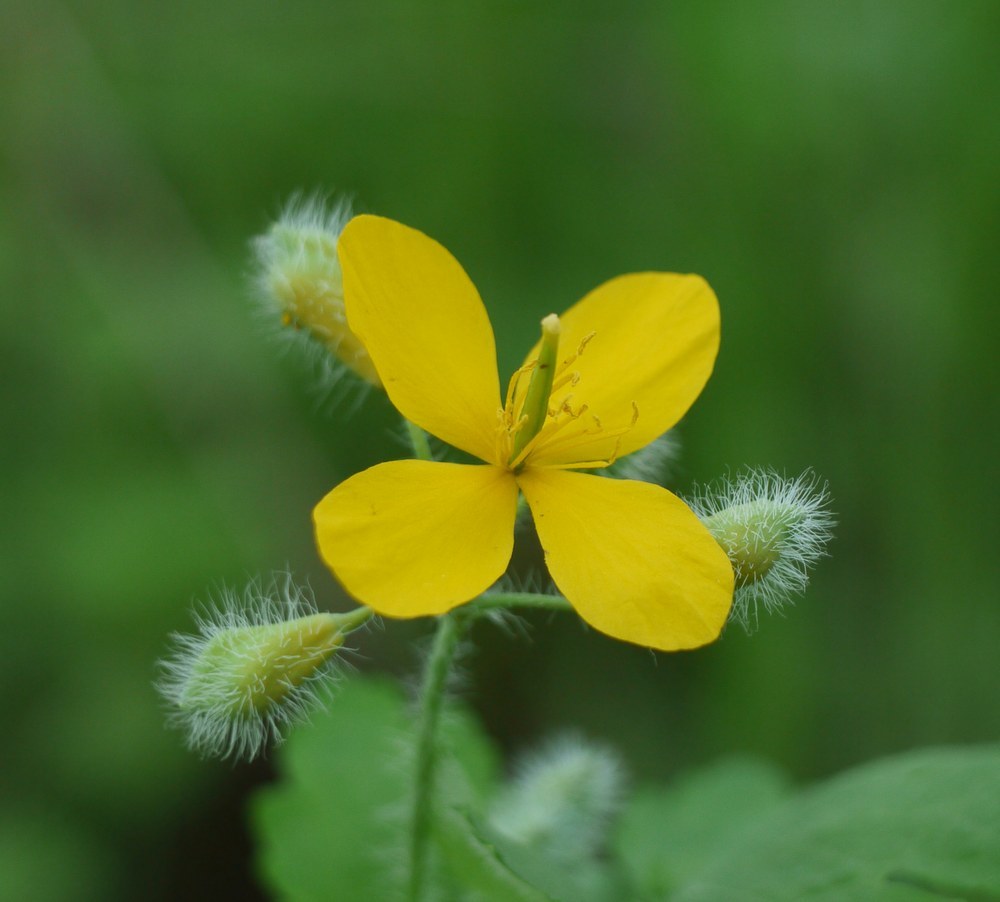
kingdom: Plantae
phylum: Tracheophyta
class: Magnoliopsida
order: Ranunculales
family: Papaveraceae
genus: Chelidonium
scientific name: Chelidonium majus
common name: Greater celandine
